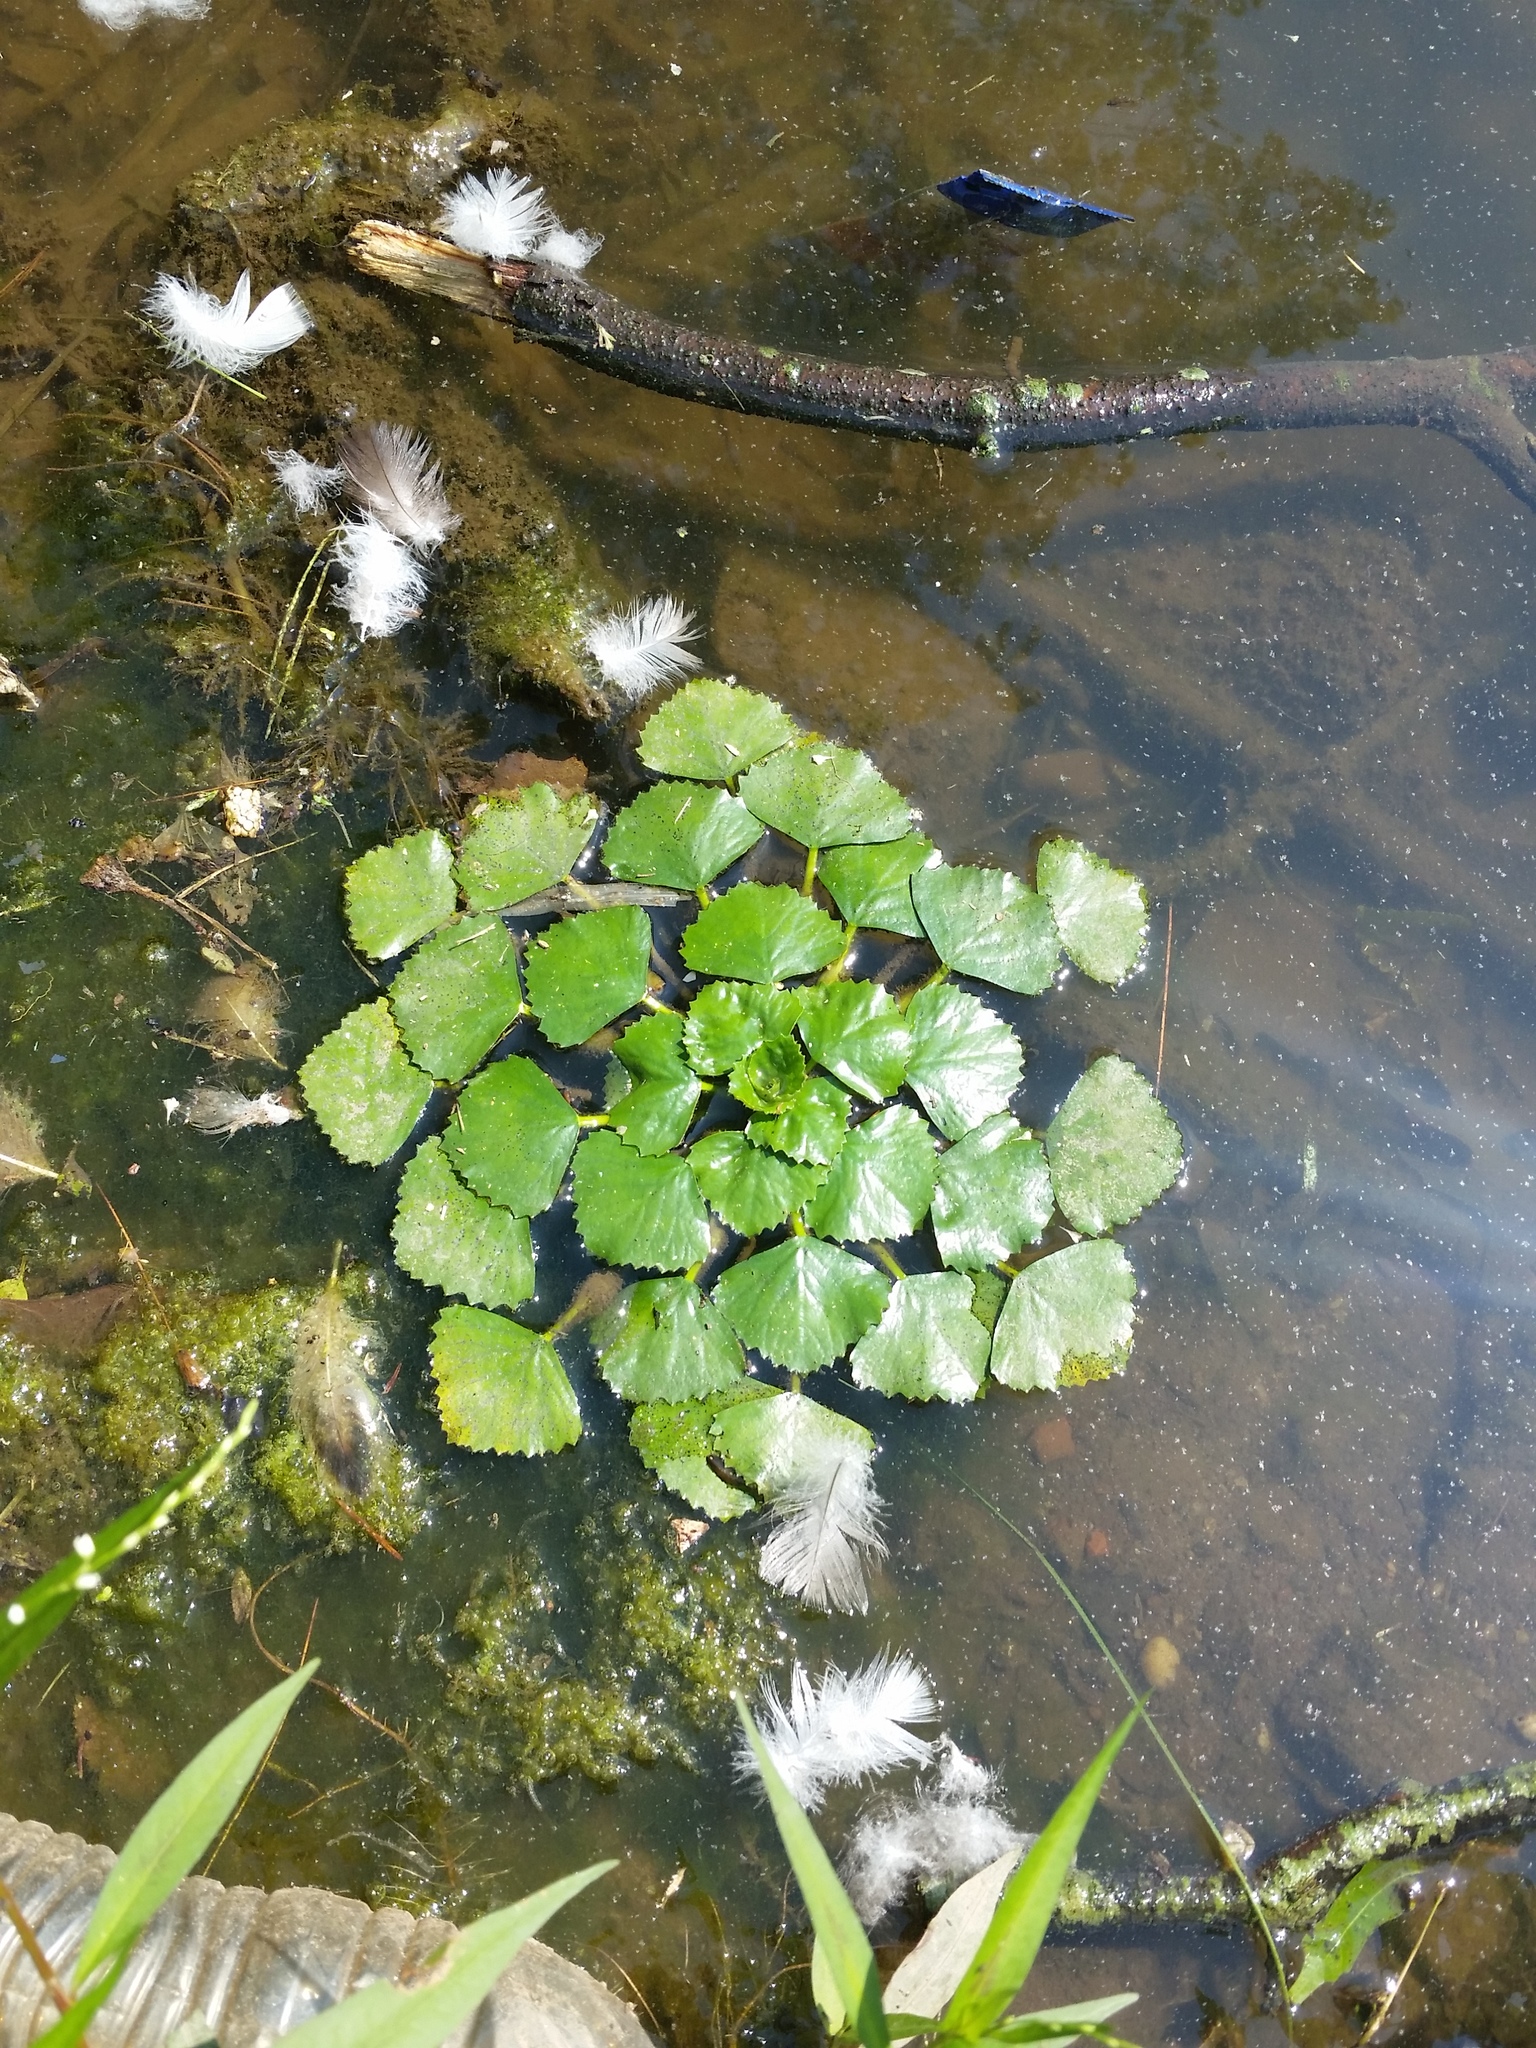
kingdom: Plantae
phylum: Tracheophyta
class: Magnoliopsida
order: Myrtales
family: Lythraceae
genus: Trapa
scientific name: Trapa natans
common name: Water chestnut
